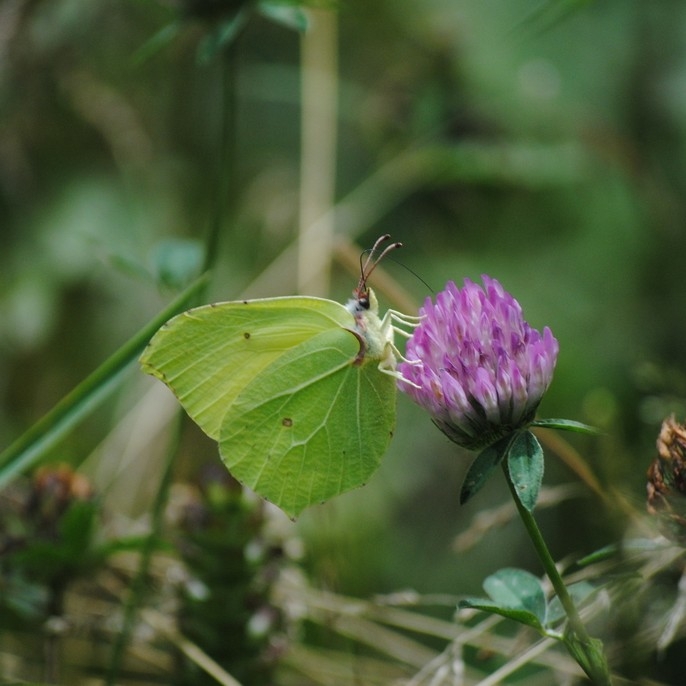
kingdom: Animalia
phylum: Arthropoda
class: Insecta
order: Lepidoptera
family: Pieridae
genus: Gonepteryx
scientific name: Gonepteryx rhamni
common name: Brimstone
